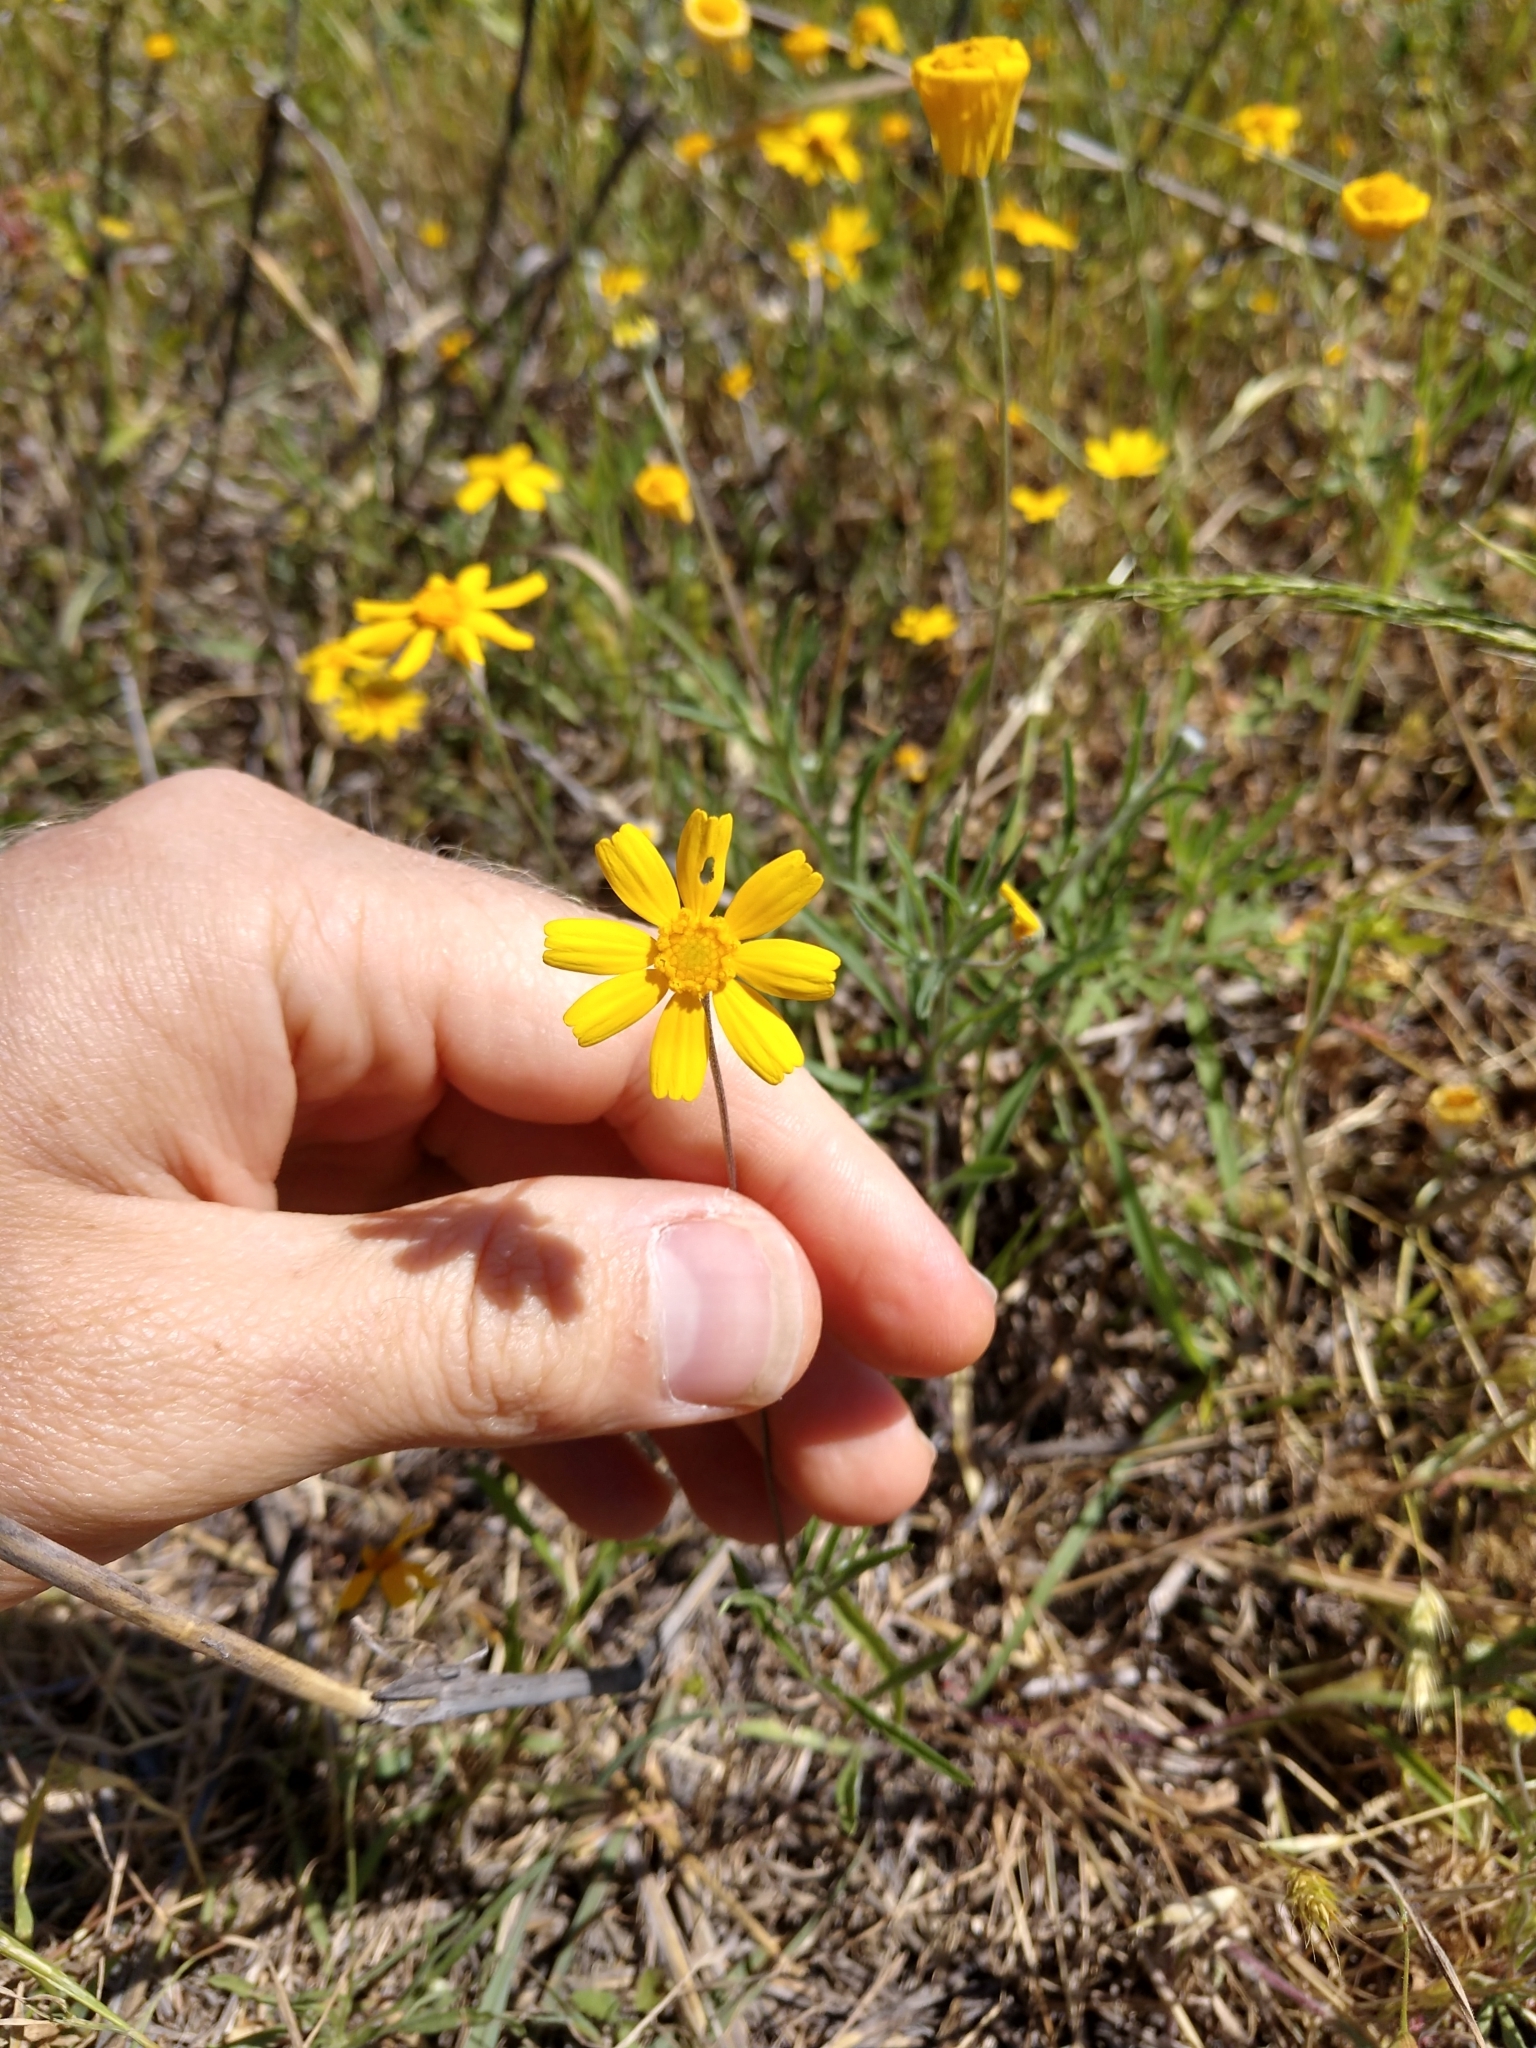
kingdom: Plantae
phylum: Tracheophyta
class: Magnoliopsida
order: Asterales
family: Asteraceae
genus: Tetraneuris
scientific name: Tetraneuris linearifolia
